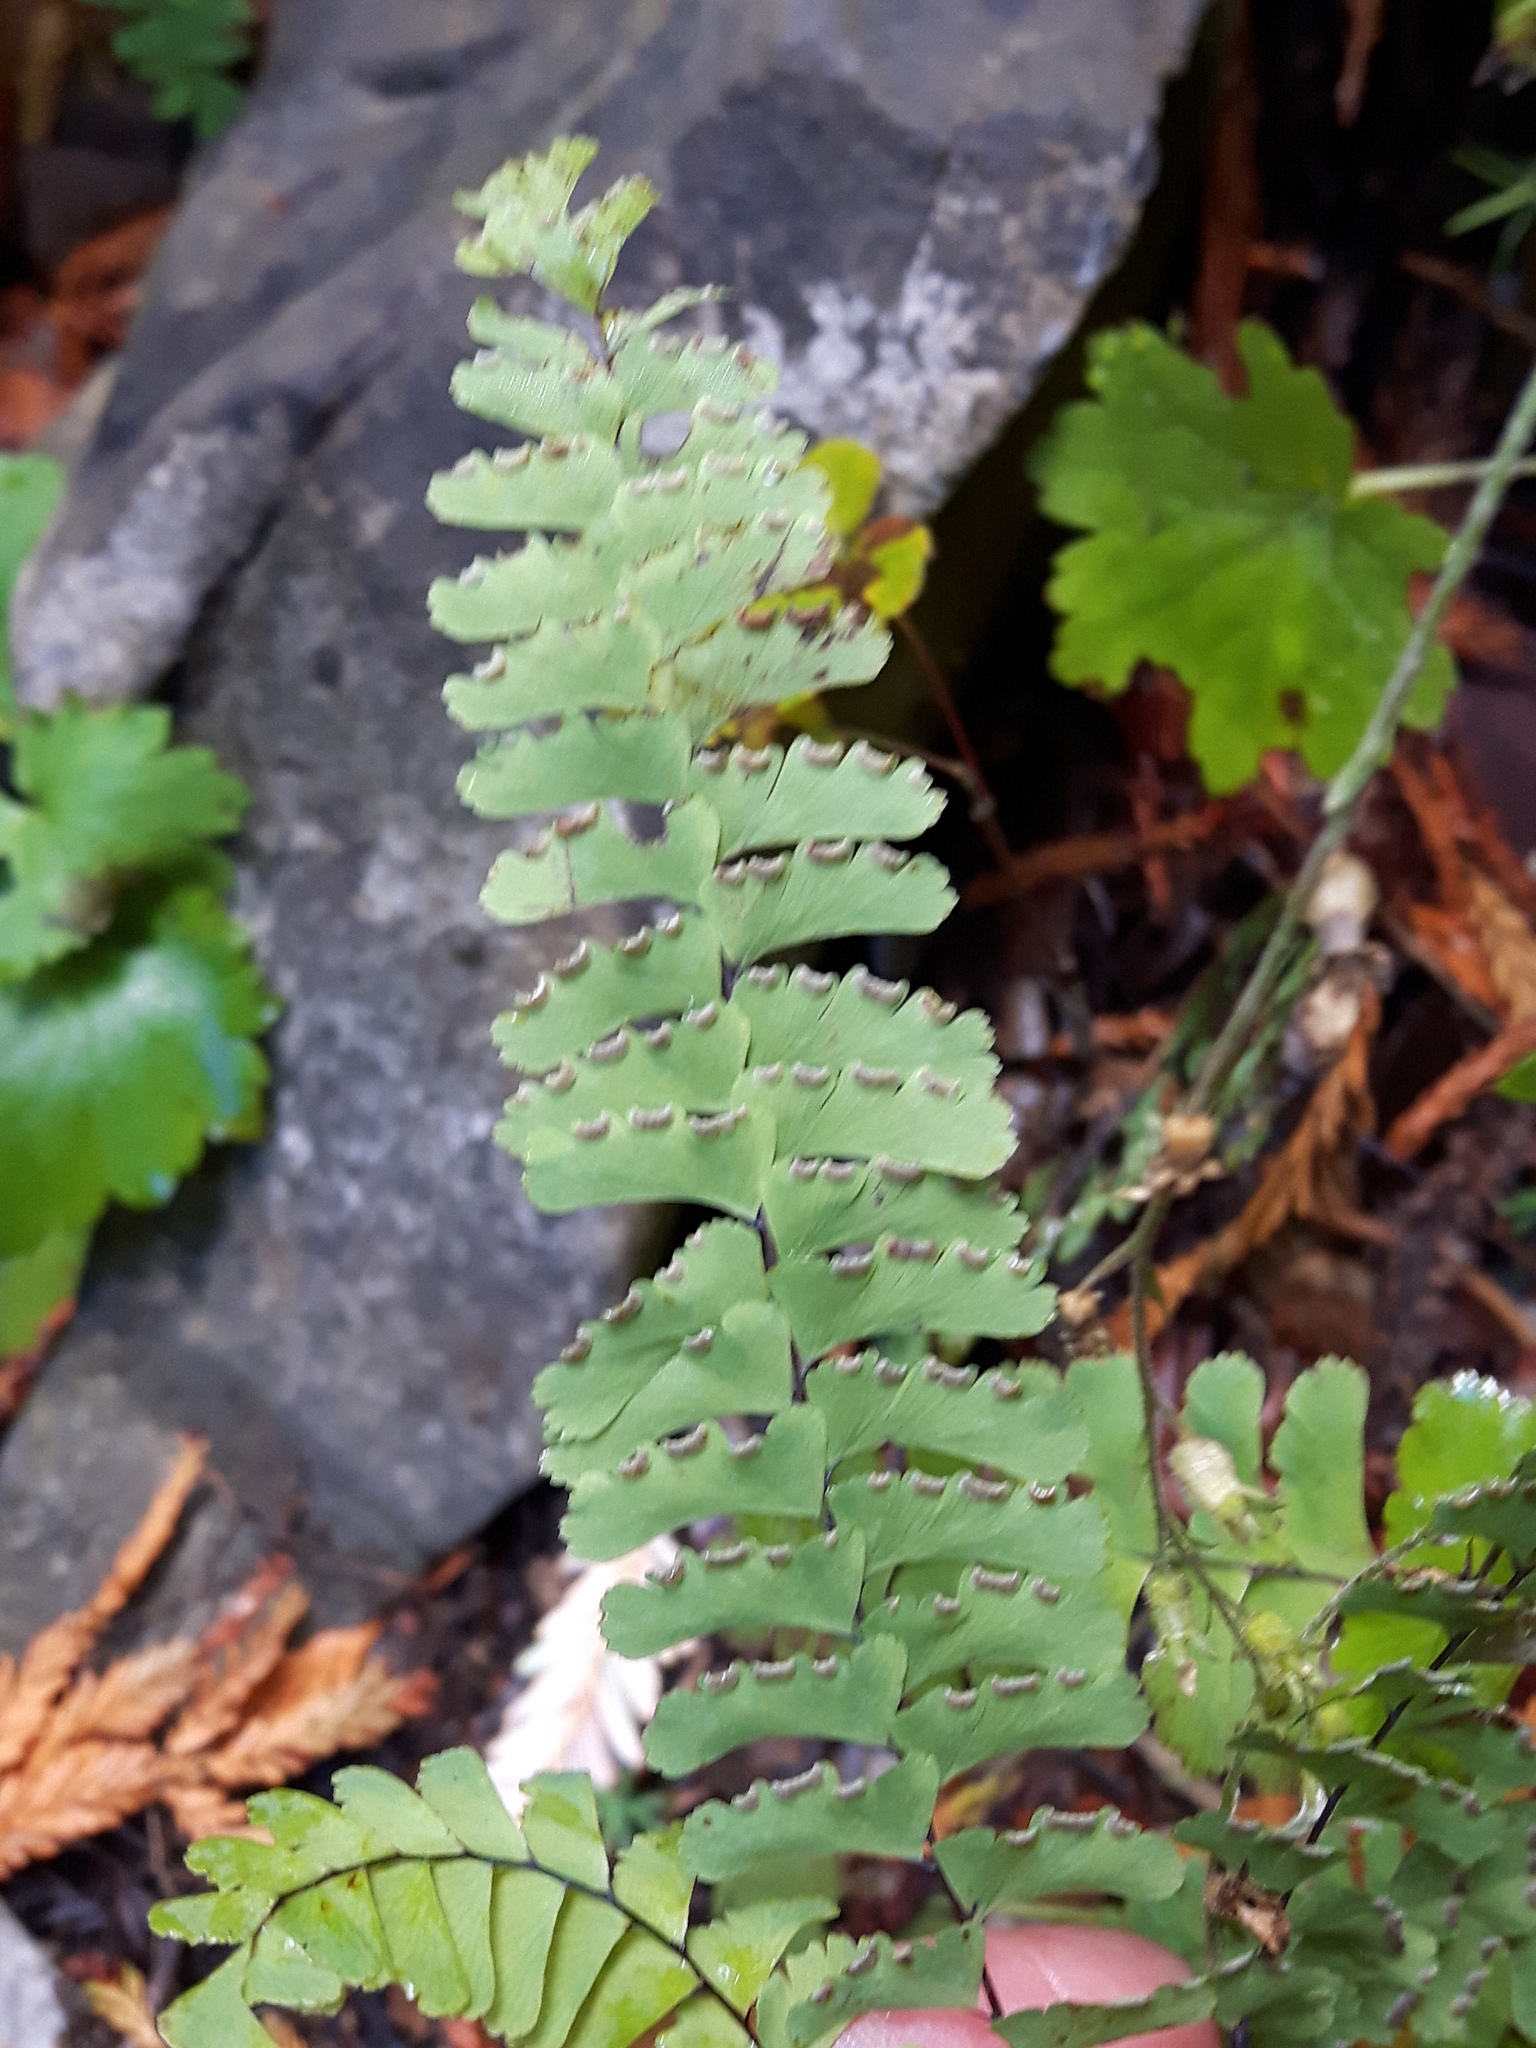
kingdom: Plantae
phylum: Tracheophyta
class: Polypodiopsida
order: Polypodiales
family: Pteridaceae
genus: Adiantum
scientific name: Adiantum aleuticum
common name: Aleutian maidenhair fern
